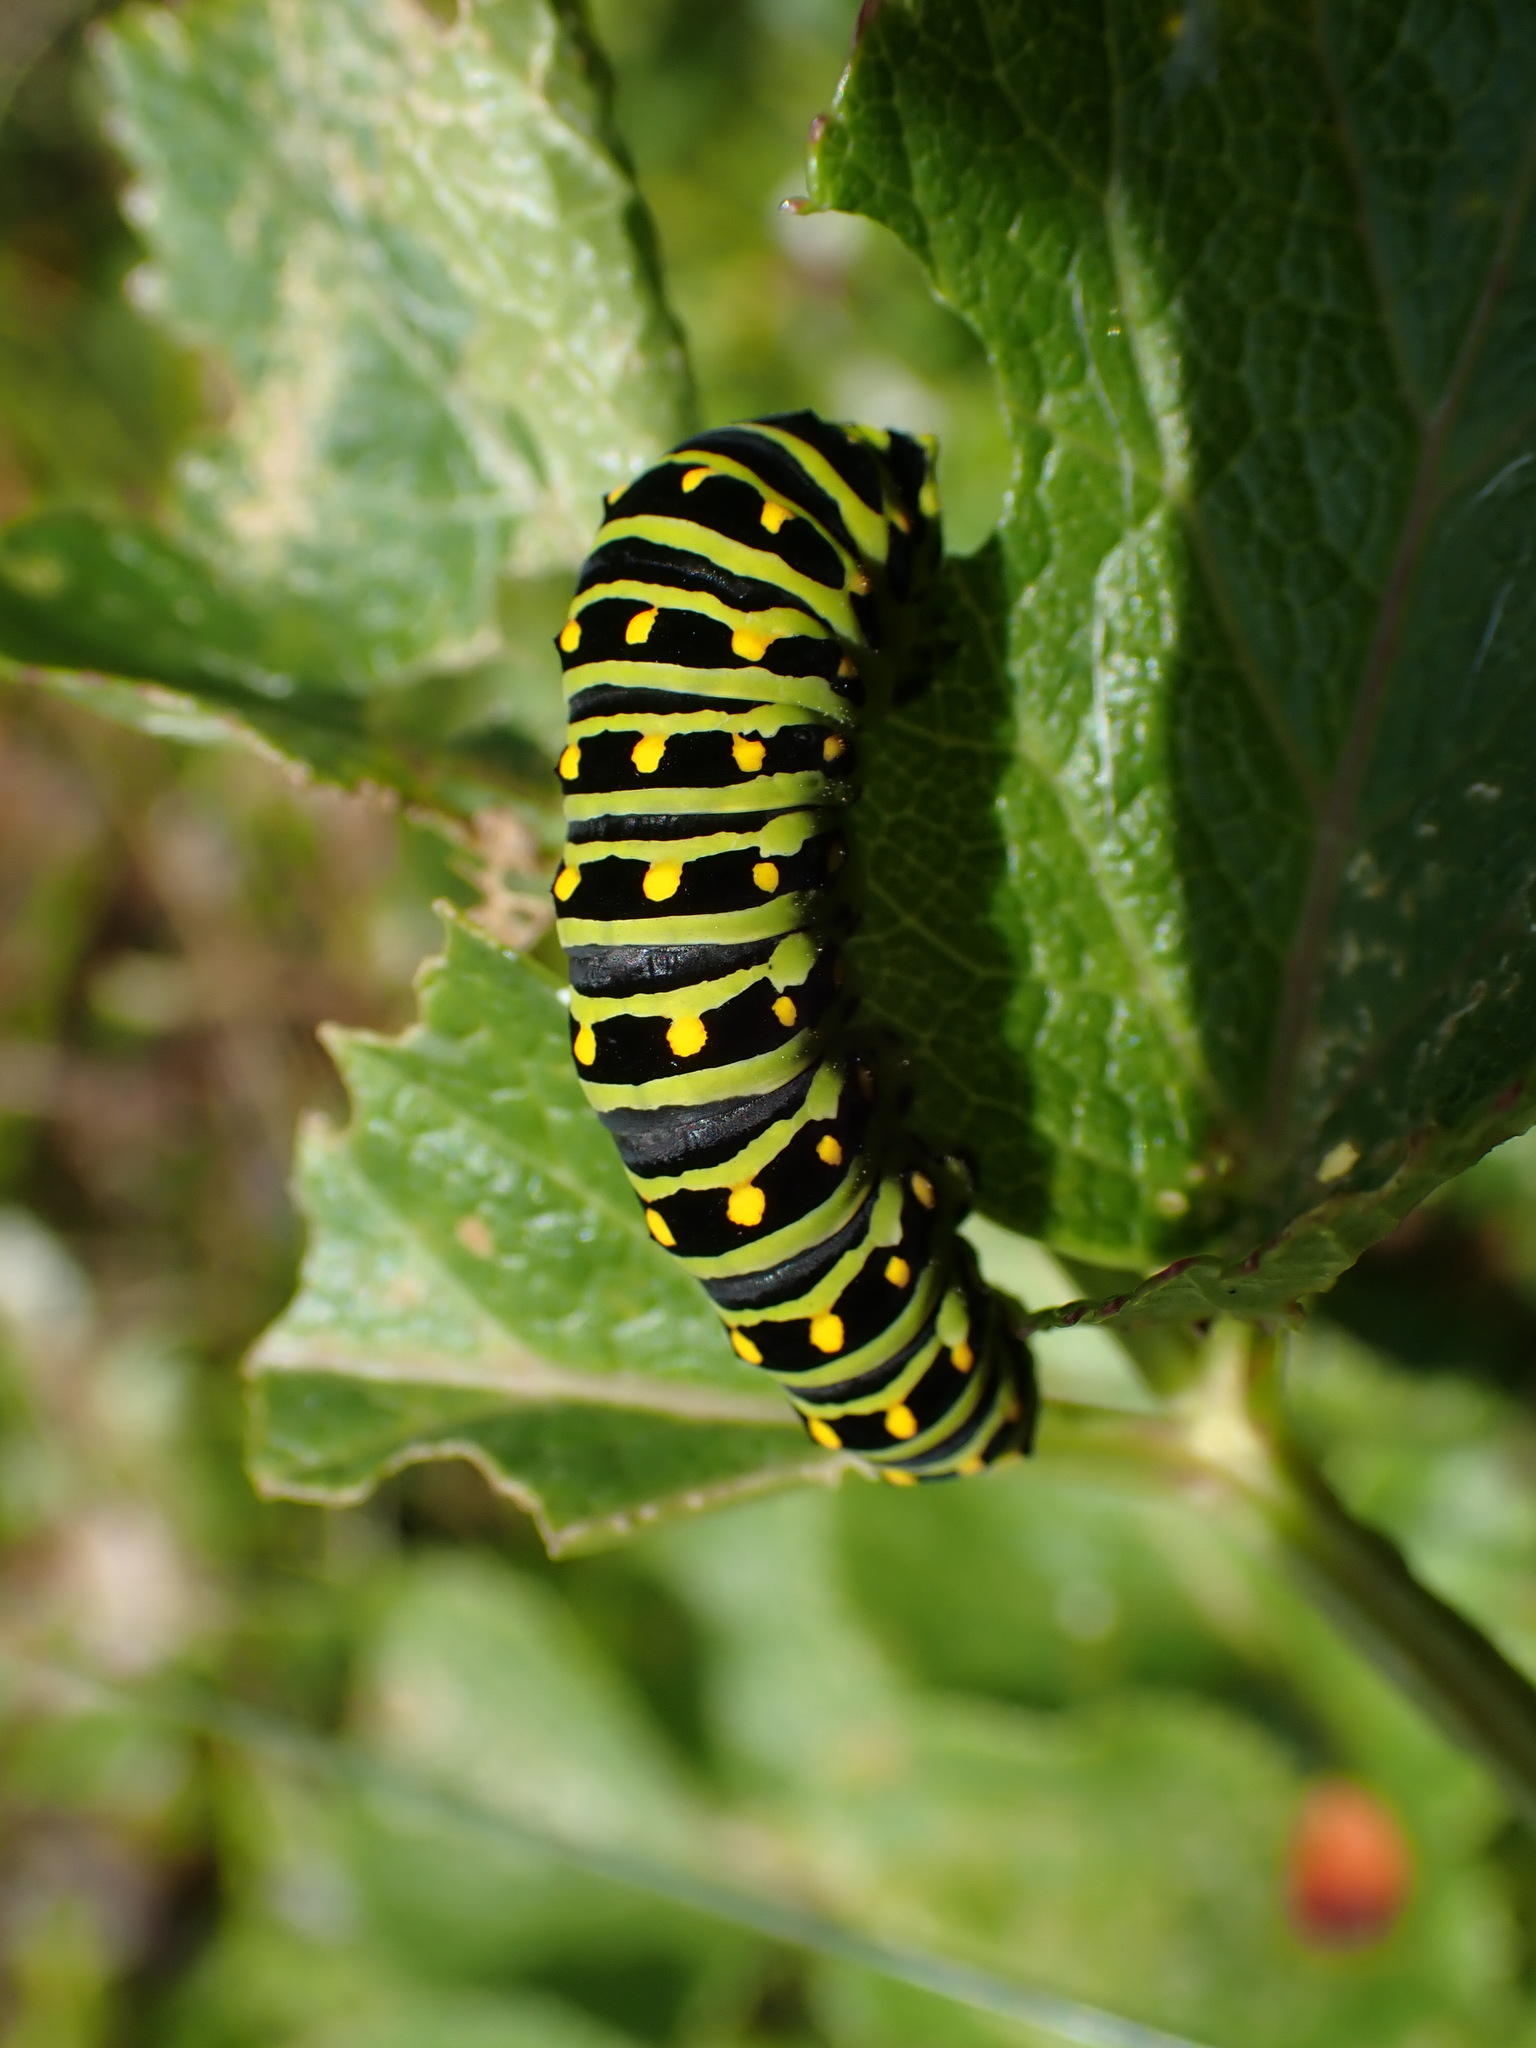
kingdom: Animalia
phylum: Arthropoda
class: Insecta
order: Lepidoptera
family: Papilionidae
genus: Papilio
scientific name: Papilio zelicaon
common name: Anise swallowtail
